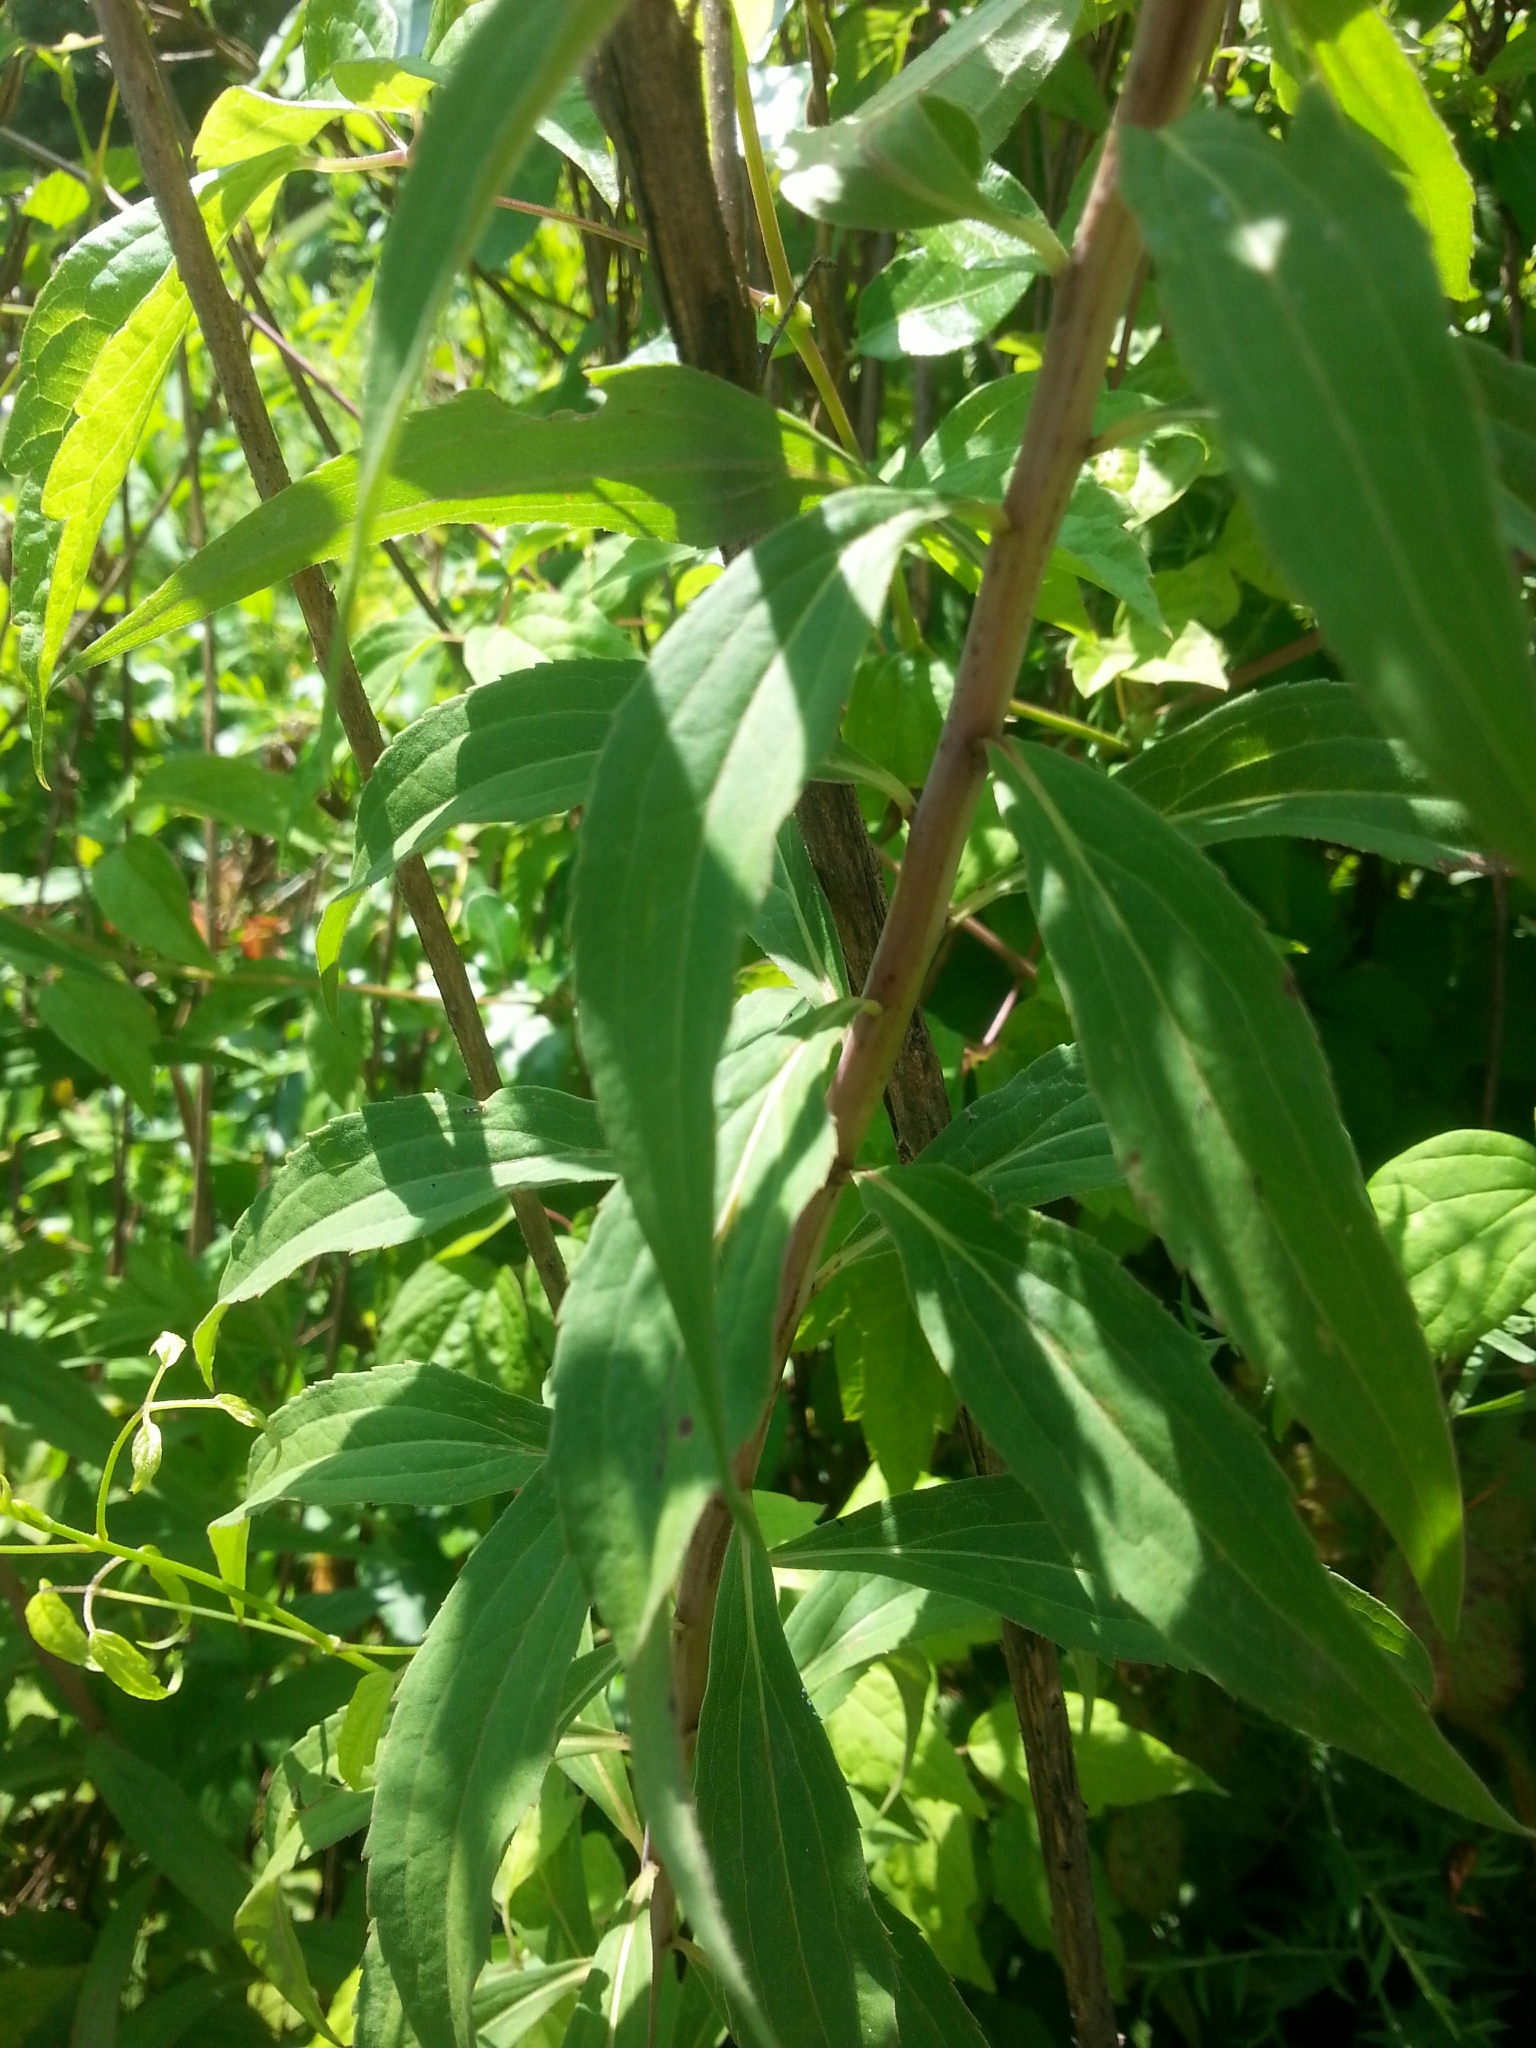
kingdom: Plantae
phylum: Tracheophyta
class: Magnoliopsida
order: Asterales
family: Asteraceae
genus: Solidago
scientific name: Solidago gigantea
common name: Giant goldenrod
